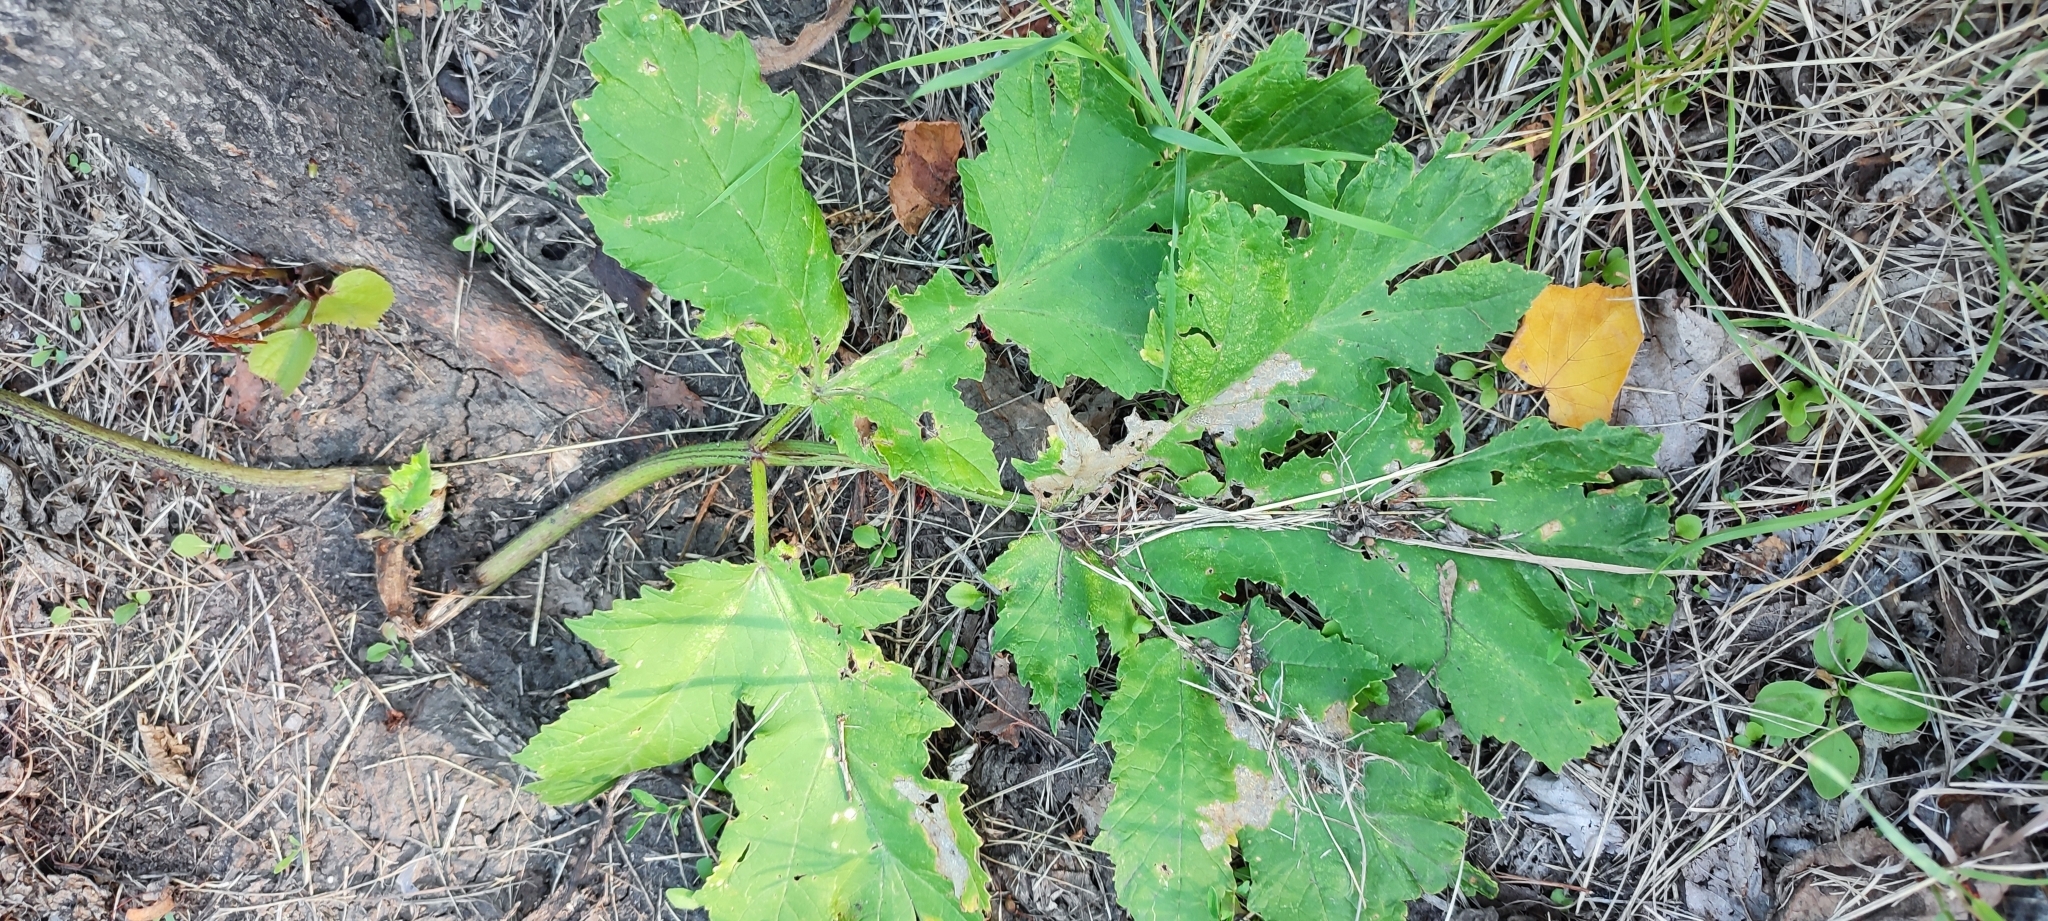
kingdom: Plantae
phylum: Tracheophyta
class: Magnoliopsida
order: Apiales
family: Apiaceae
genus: Heracleum
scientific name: Heracleum sphondylium
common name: Hogweed
